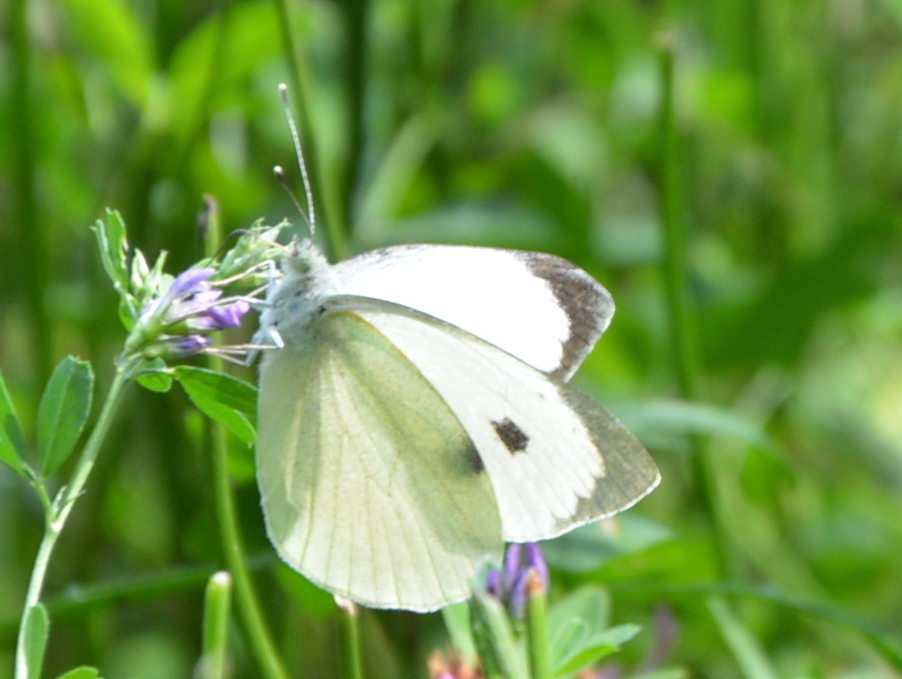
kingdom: Animalia
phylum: Arthropoda
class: Insecta
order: Lepidoptera
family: Pieridae
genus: Pieris
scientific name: Pieris brassicae
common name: Large white
